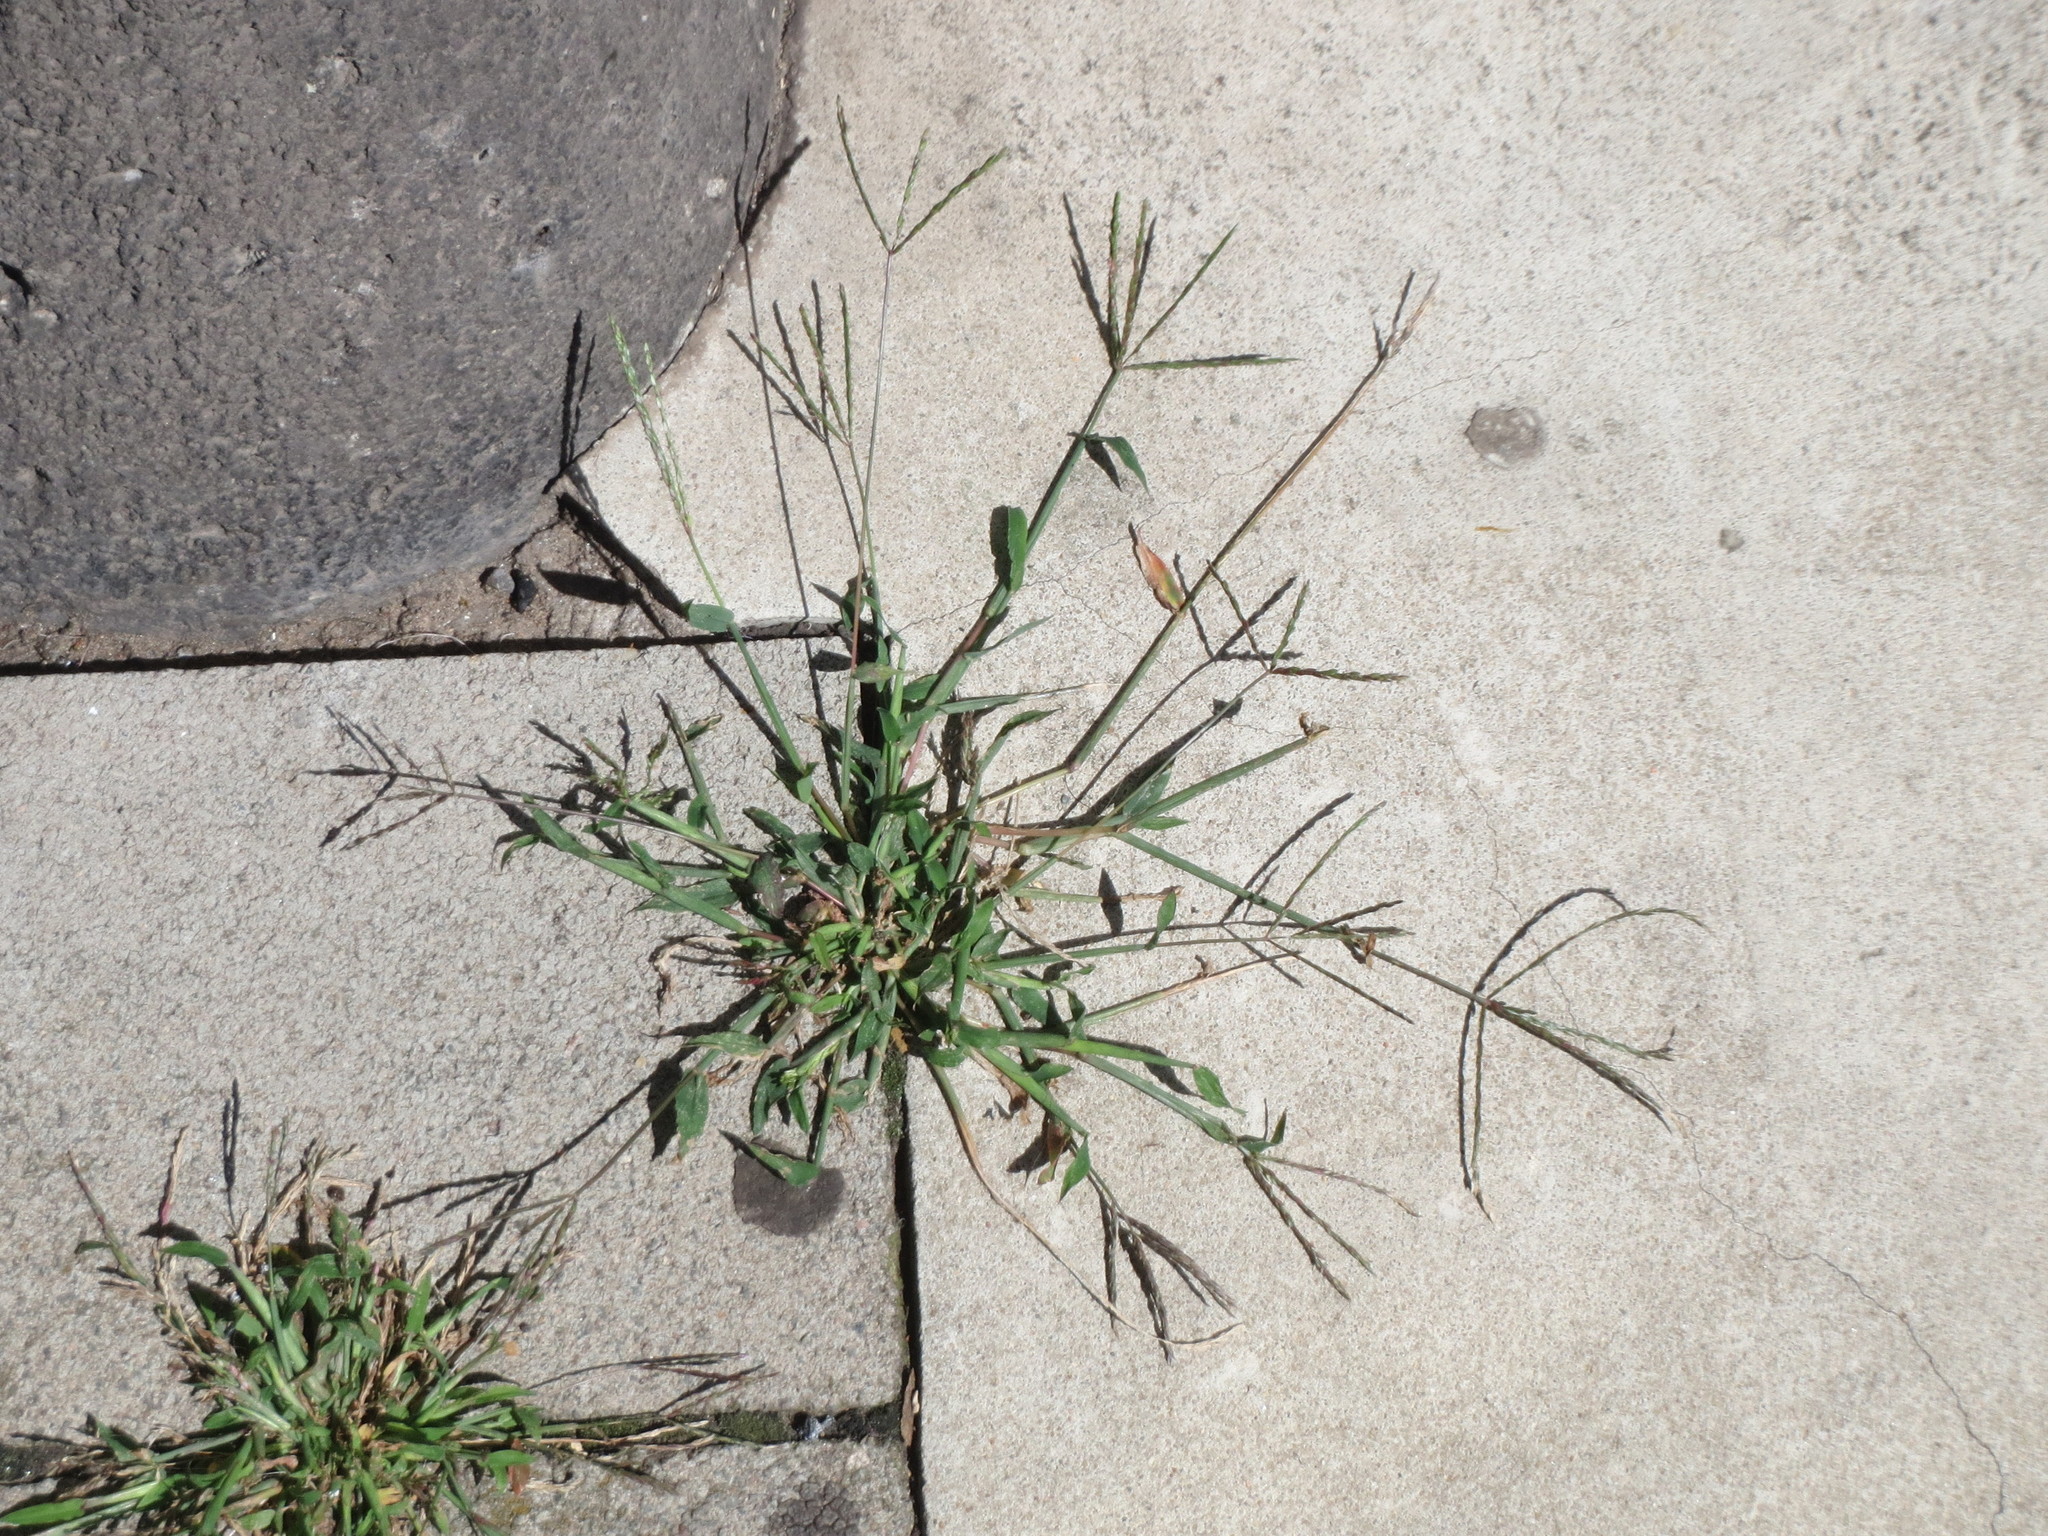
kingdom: Plantae
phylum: Tracheophyta
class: Liliopsida
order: Poales
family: Poaceae
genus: Digitaria
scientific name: Digitaria sanguinalis
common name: Hairy crabgrass
